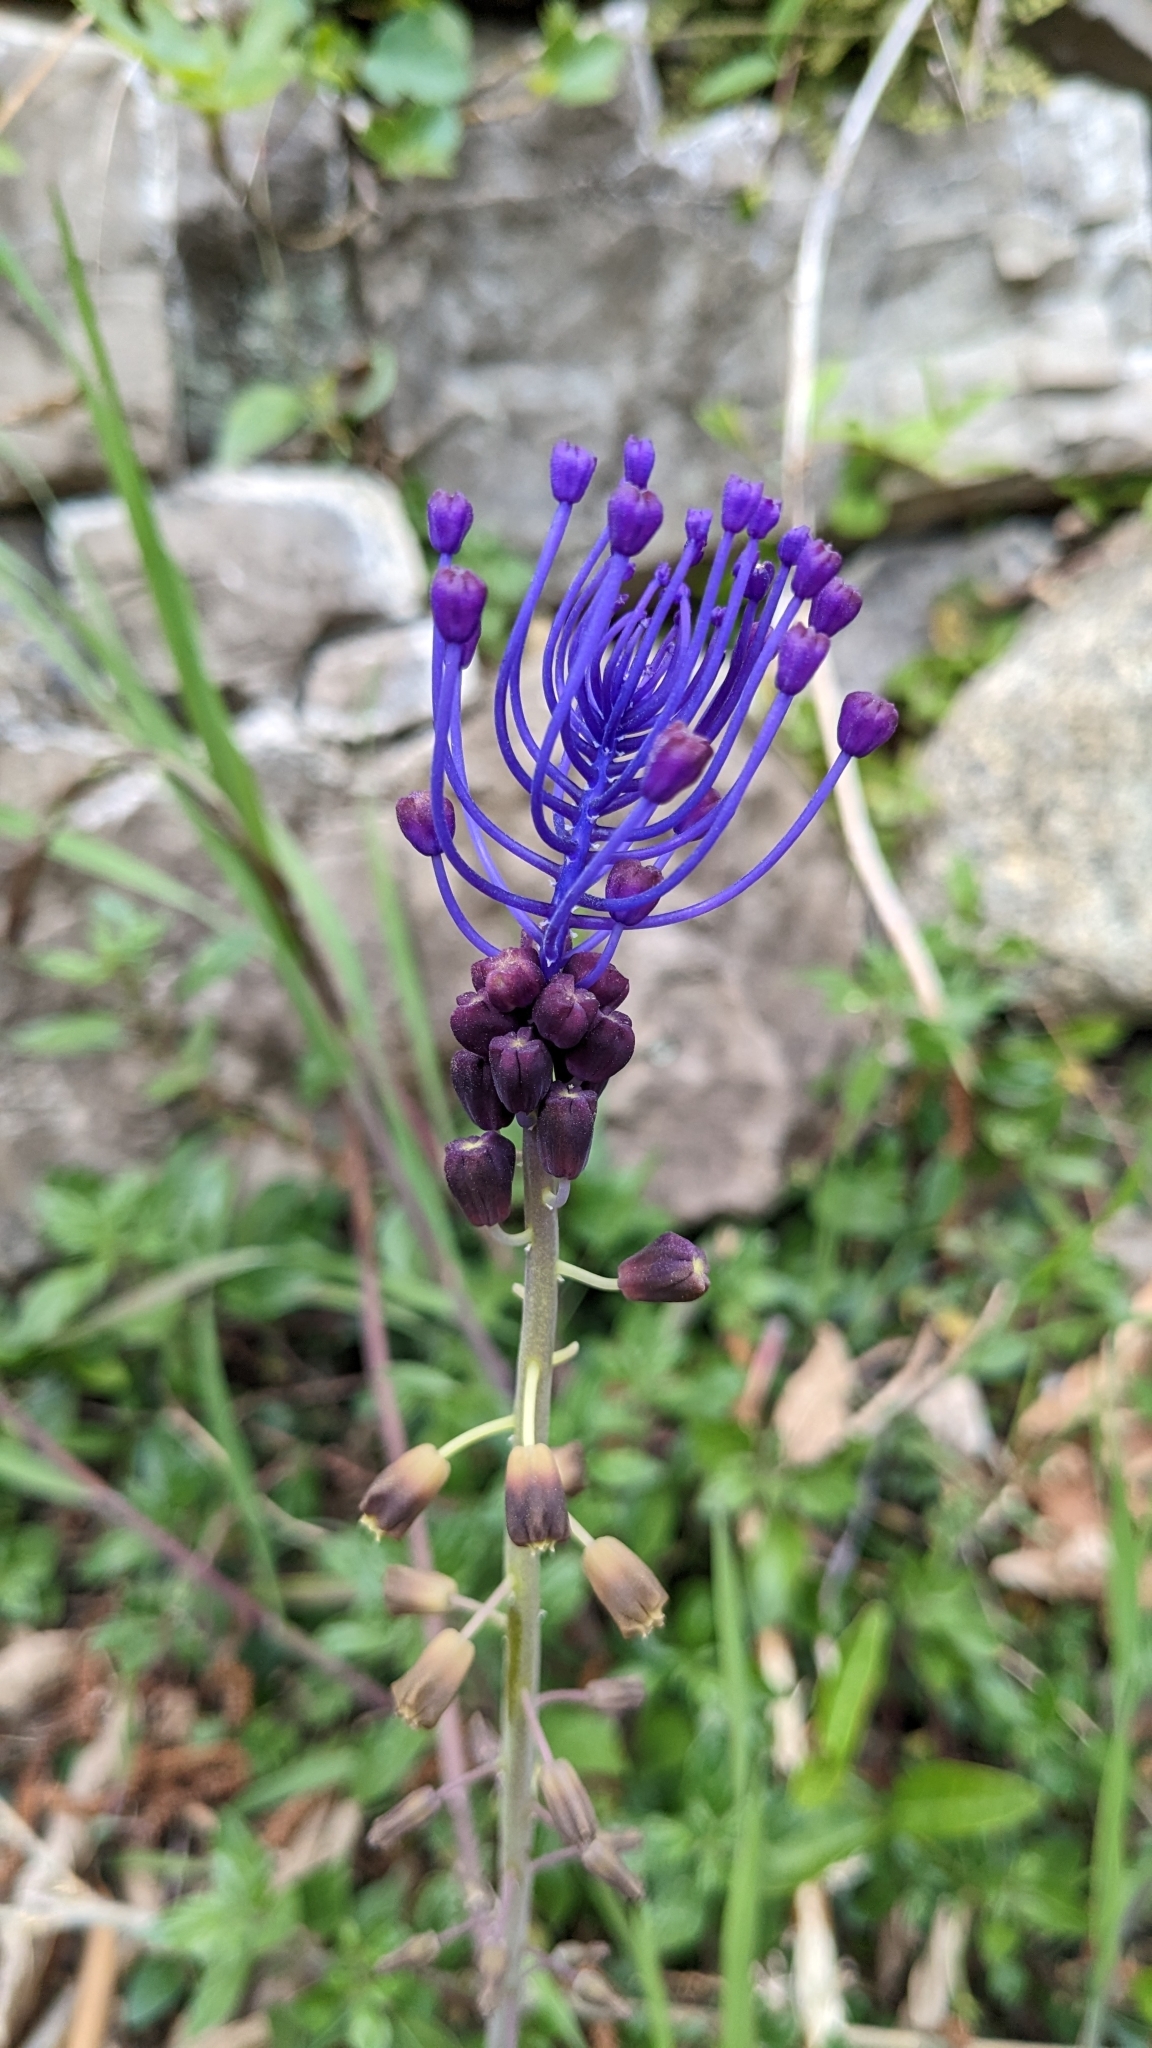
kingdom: Plantae
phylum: Tracheophyta
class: Liliopsida
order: Asparagales
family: Asparagaceae
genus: Muscari
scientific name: Muscari comosum
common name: Tassel hyacinth
